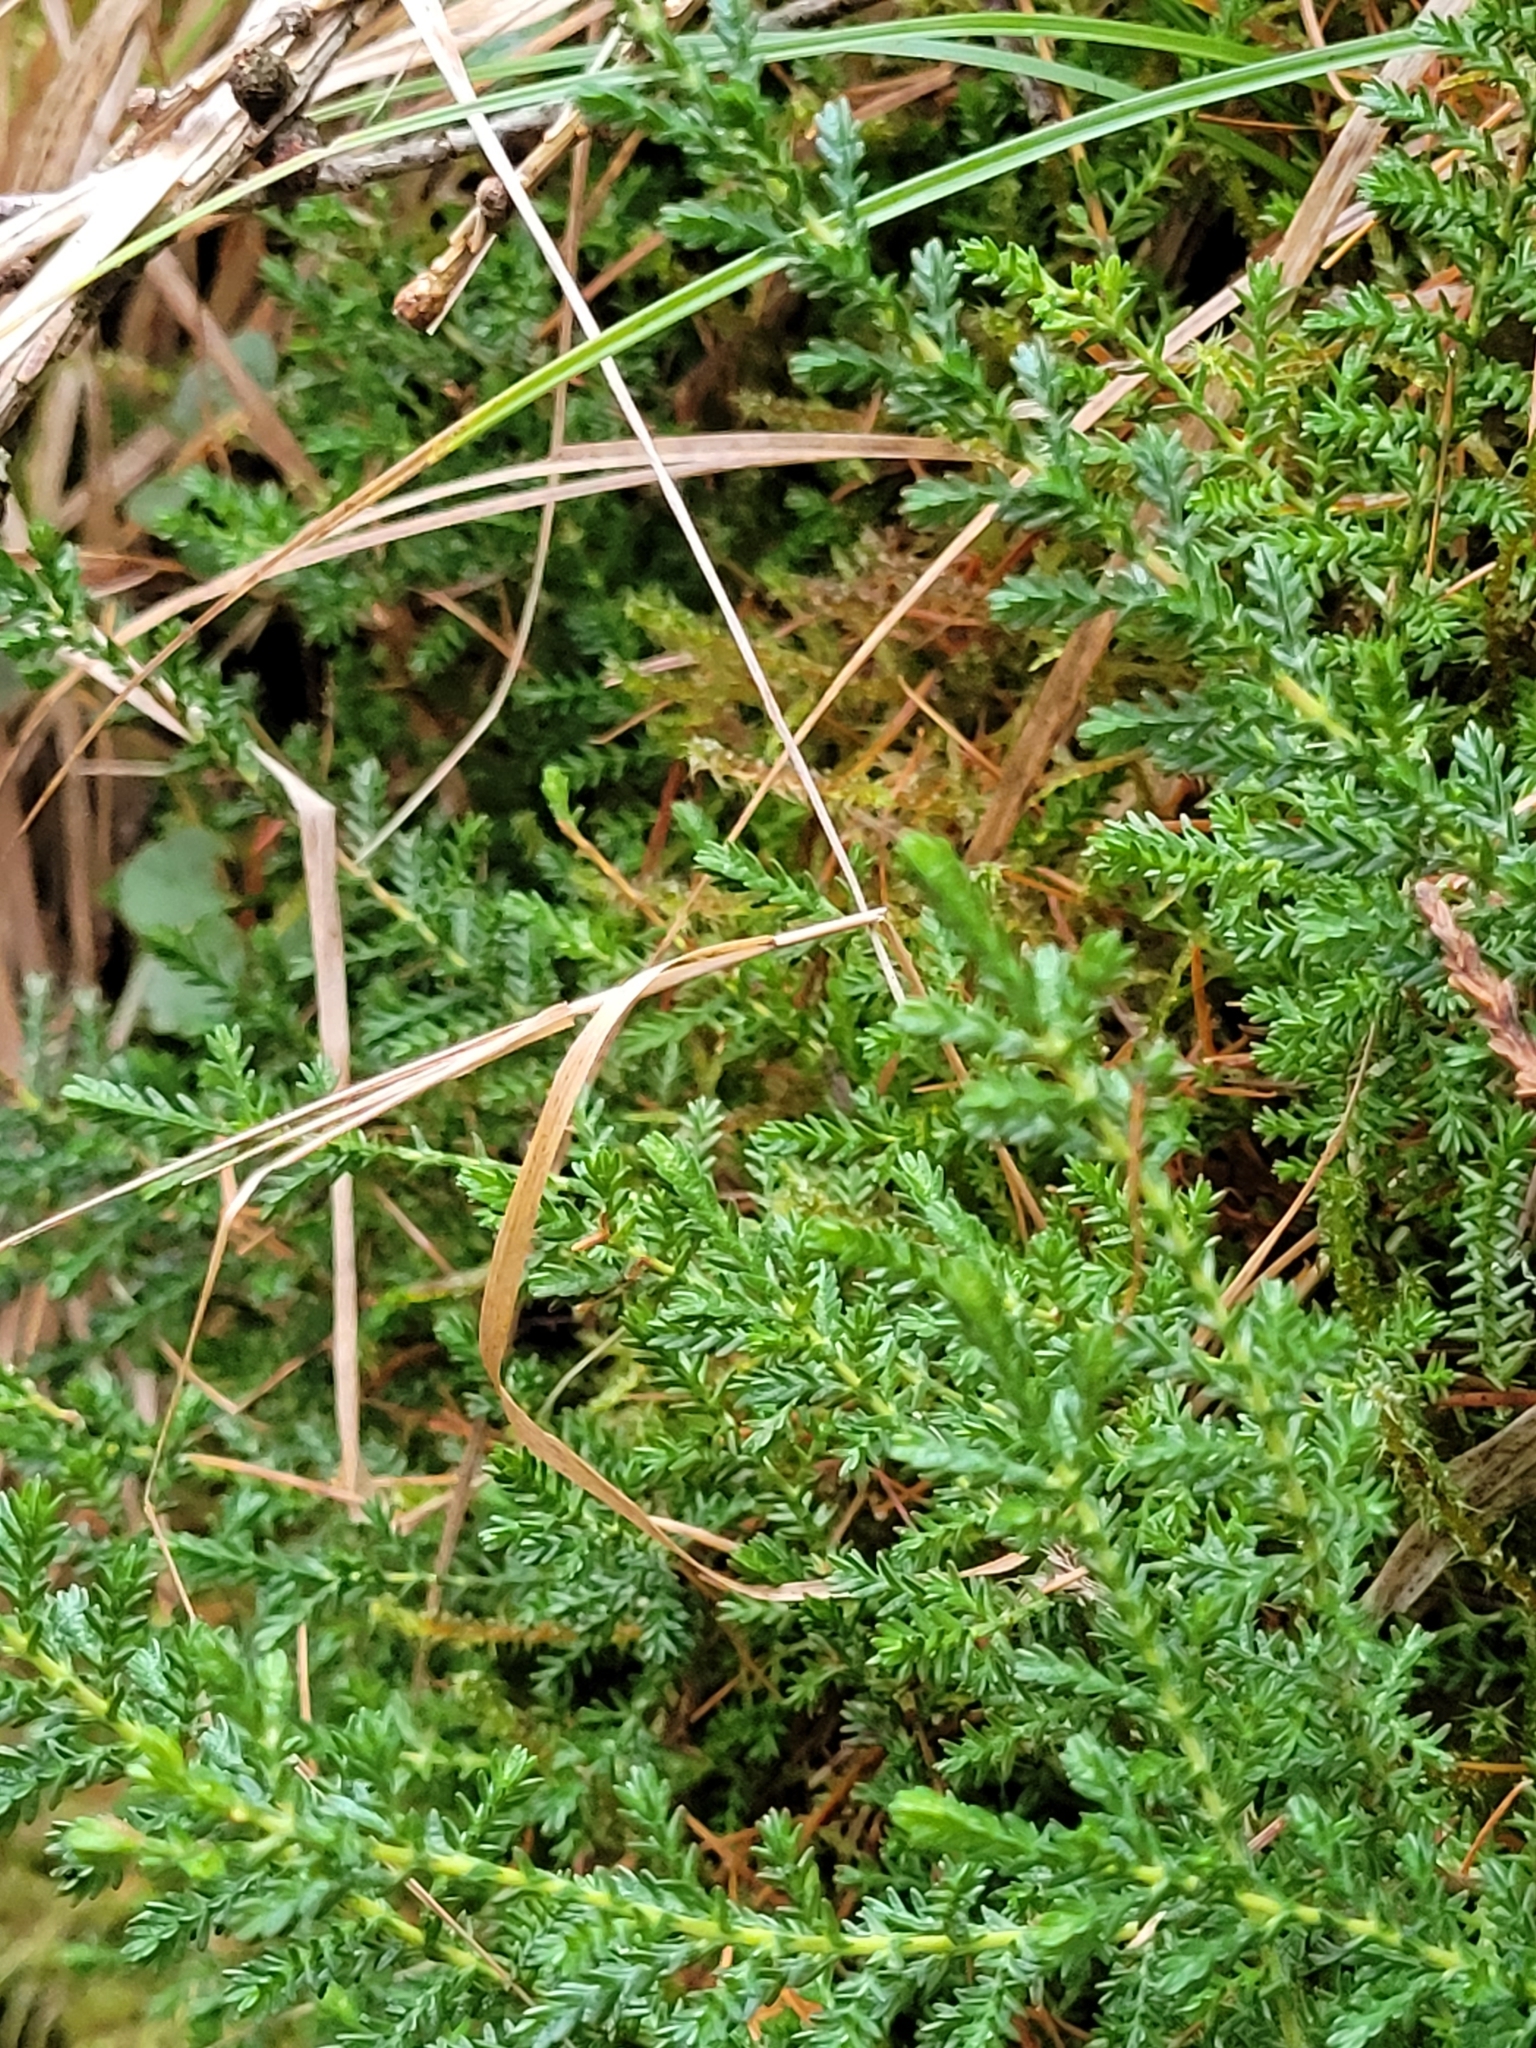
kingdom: Plantae
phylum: Tracheophyta
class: Magnoliopsida
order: Ericales
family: Ericaceae
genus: Calluna
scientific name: Calluna vulgaris
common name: Heather
